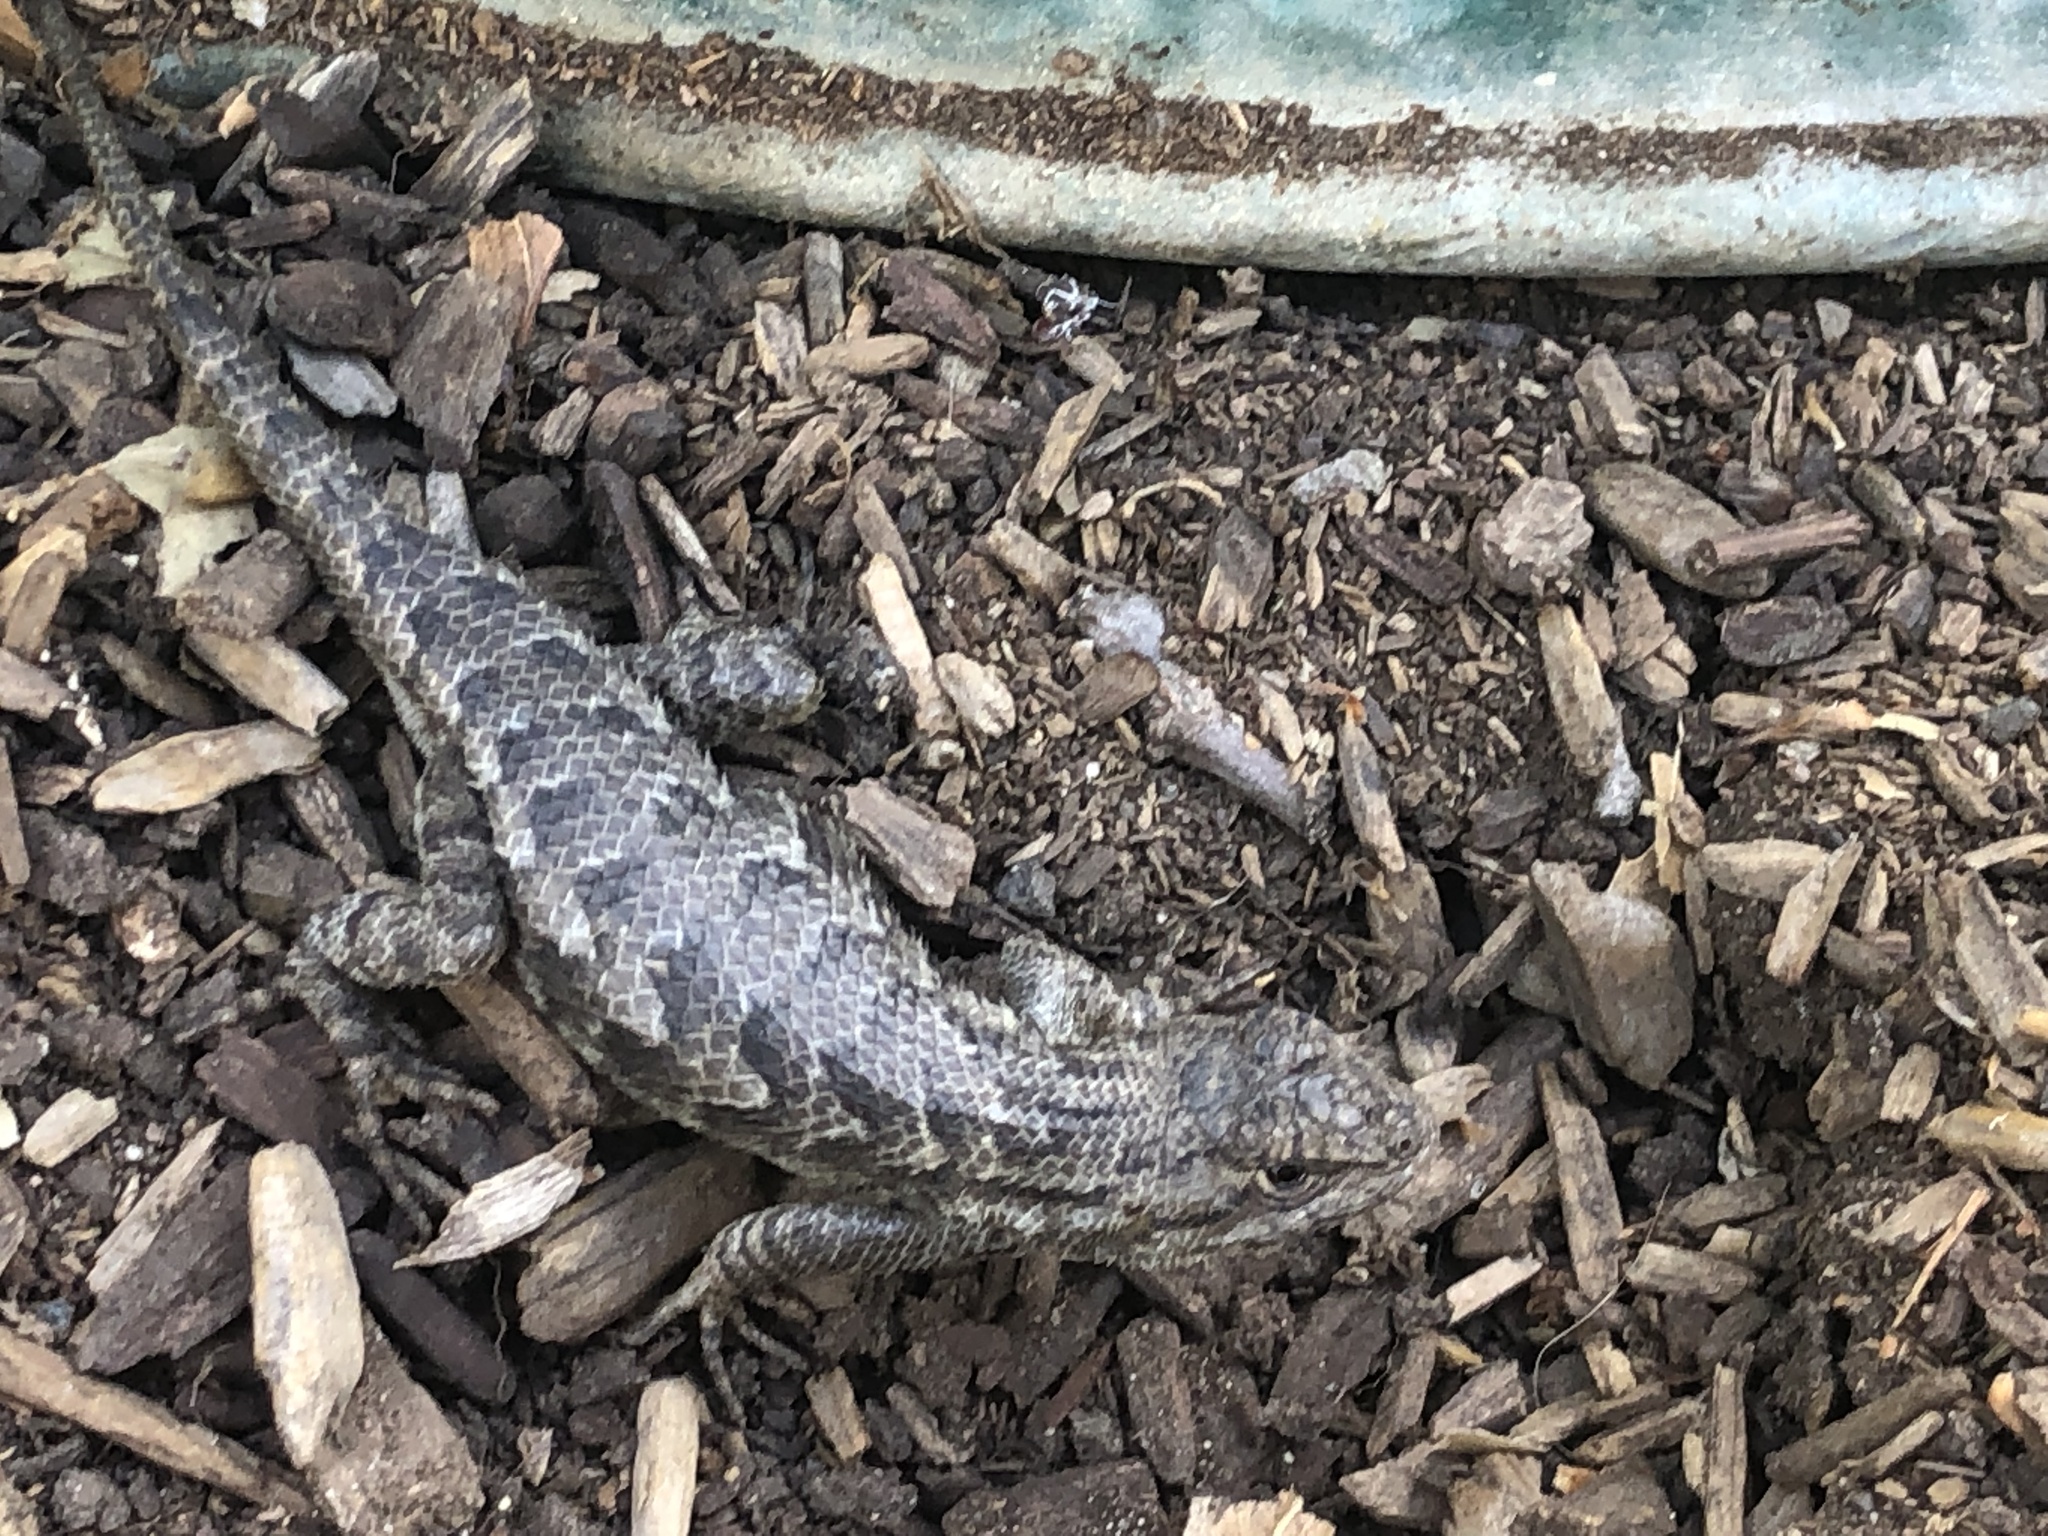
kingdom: Animalia
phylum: Chordata
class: Squamata
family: Phrynosomatidae
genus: Sceloporus
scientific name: Sceloporus occidentalis
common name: Western fence lizard
